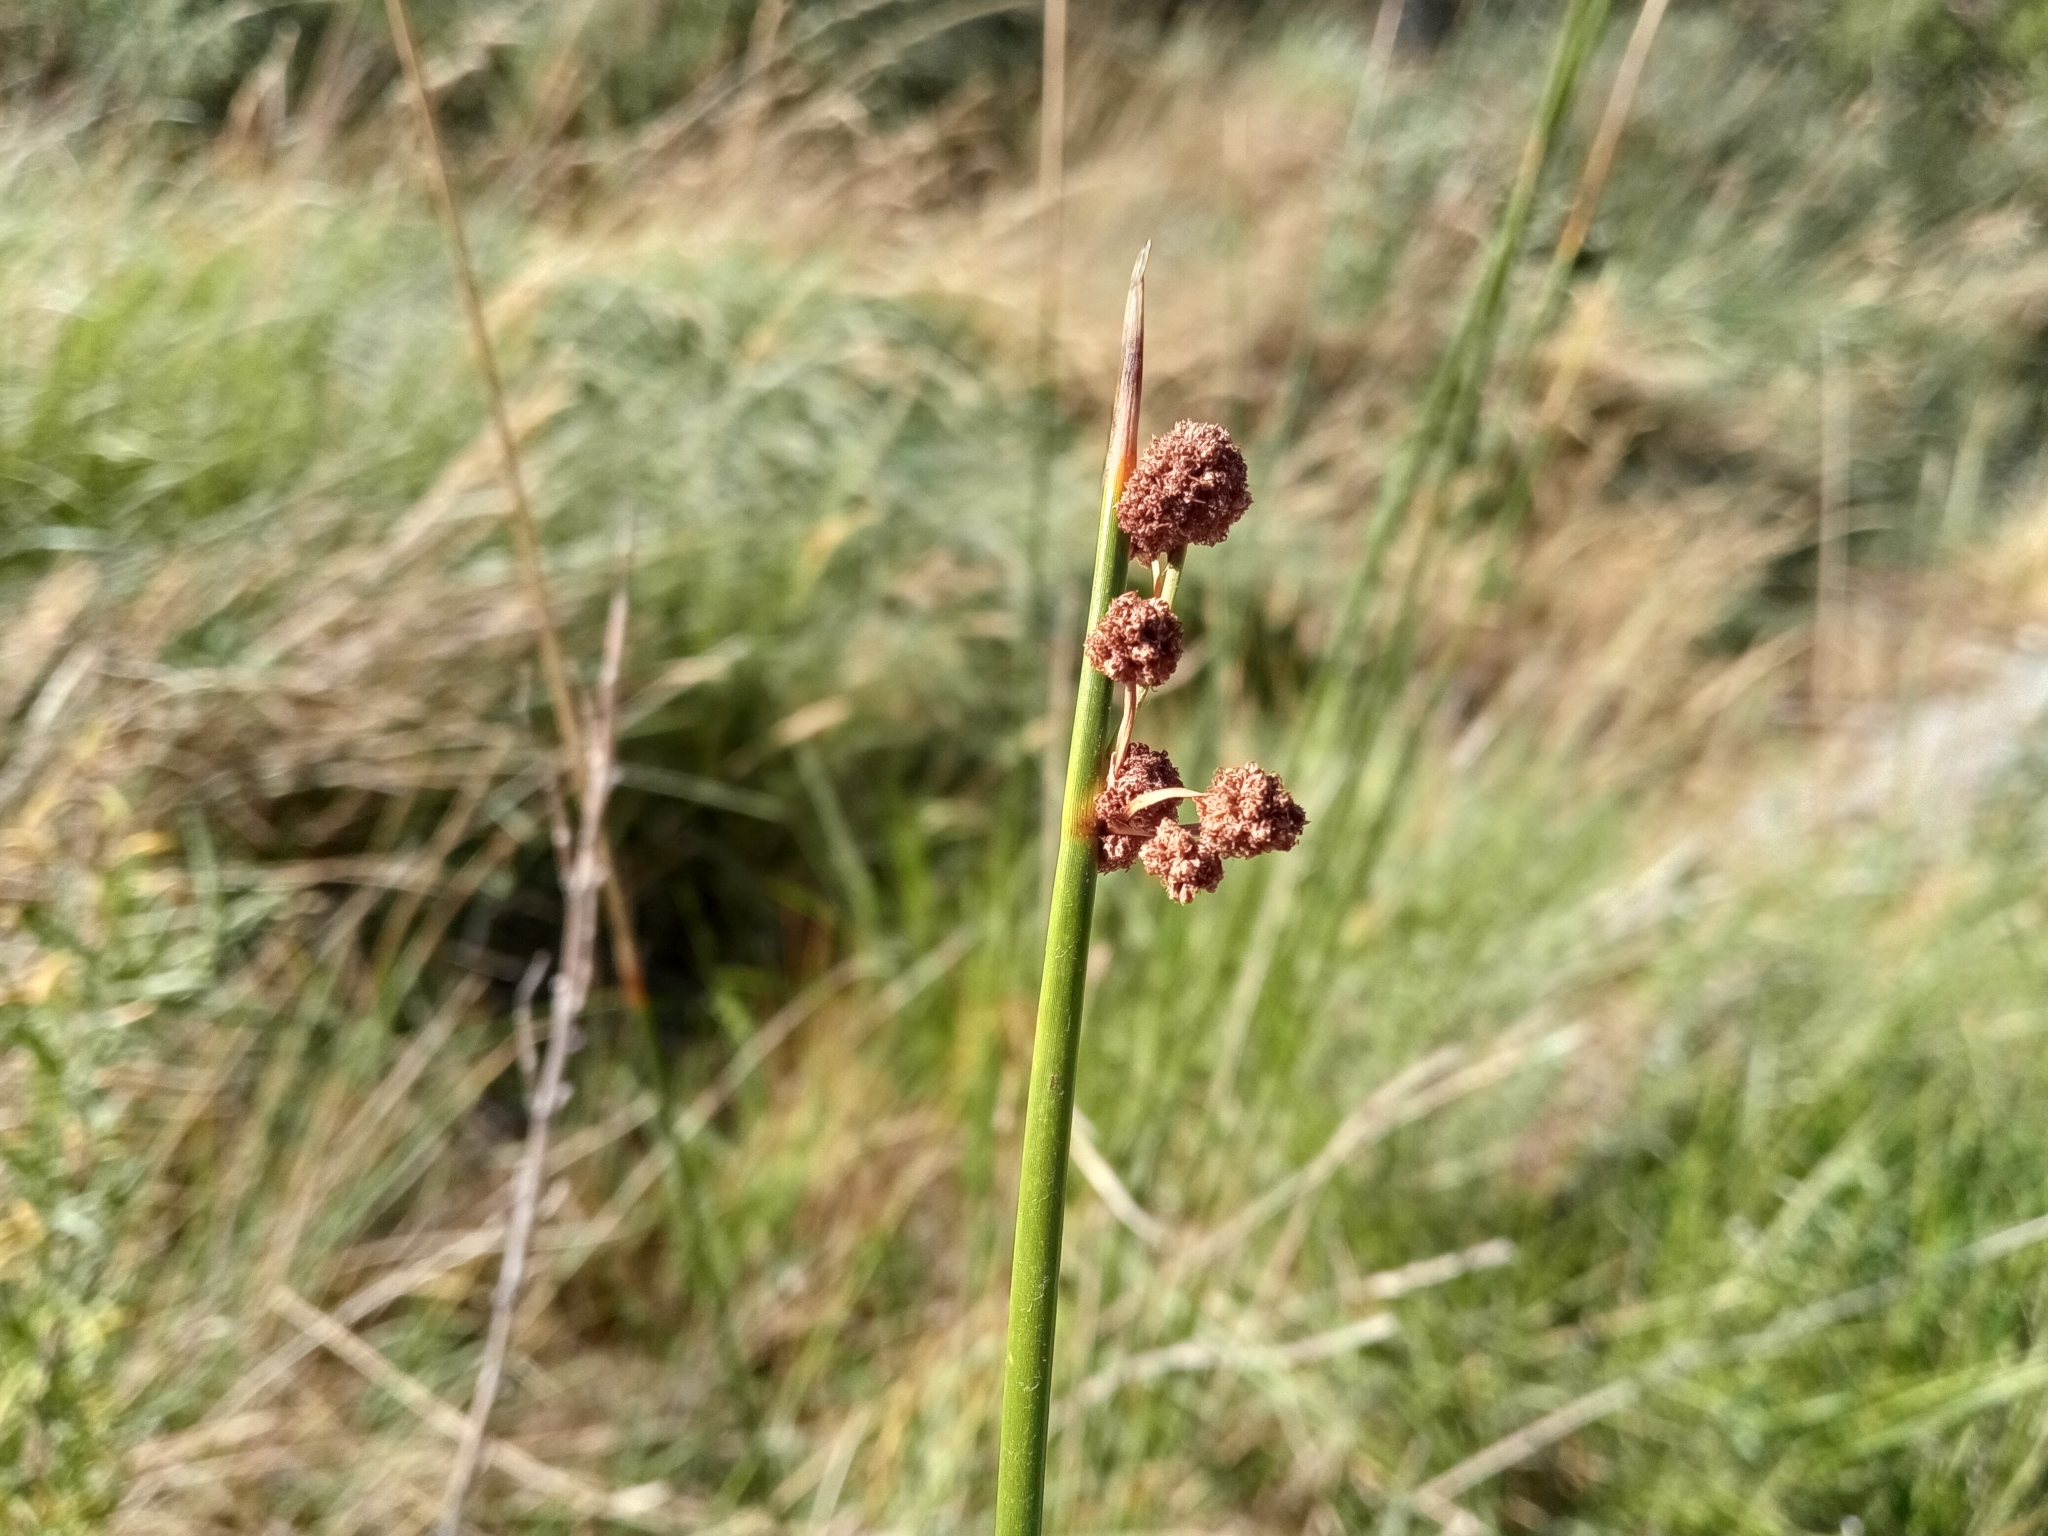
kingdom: Plantae
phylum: Tracheophyta
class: Liliopsida
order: Poales
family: Cyperaceae
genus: Scirpoides
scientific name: Scirpoides holoschoenus
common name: Round-headed club-rush
